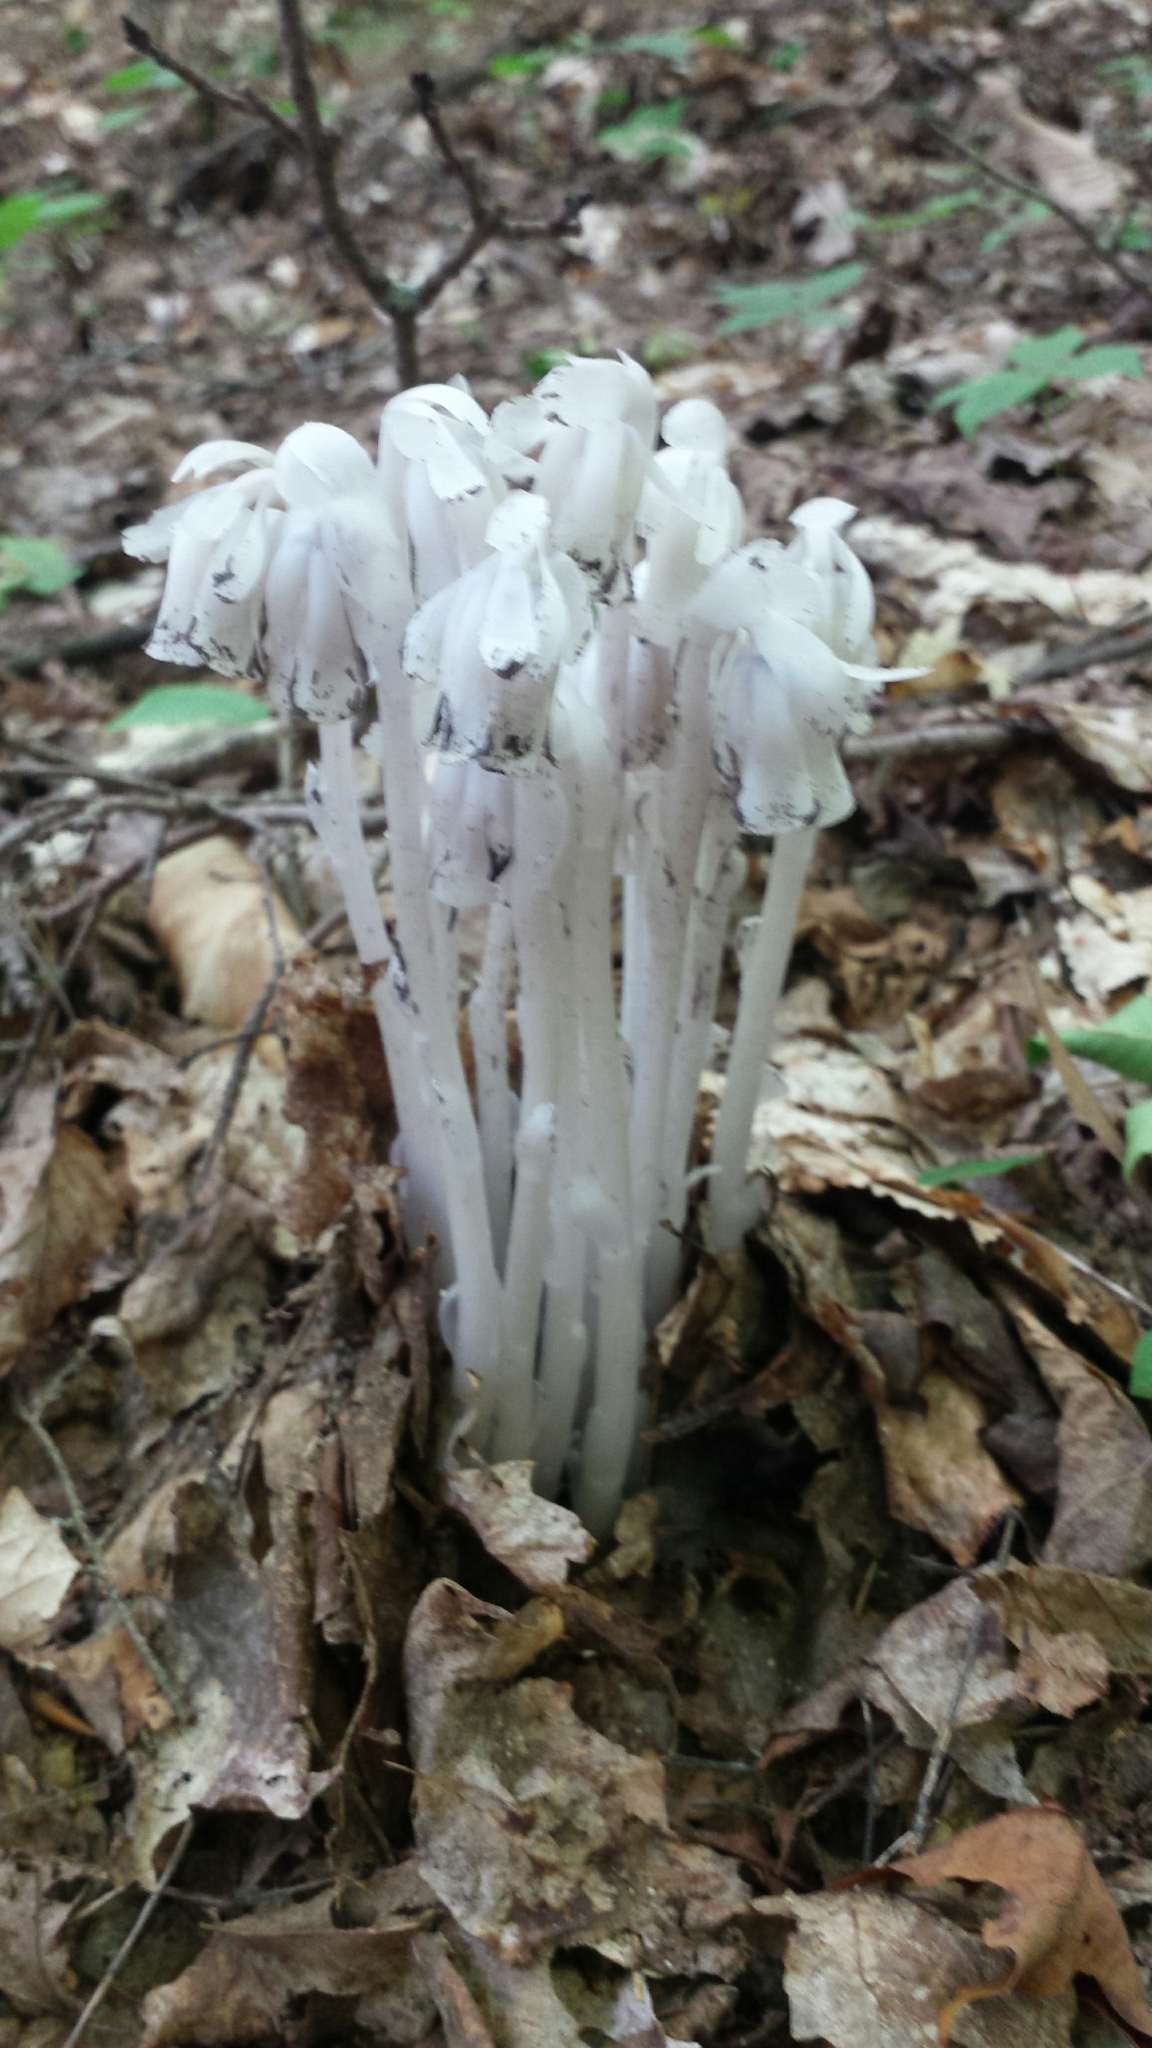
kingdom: Plantae
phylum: Tracheophyta
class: Magnoliopsida
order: Ericales
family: Ericaceae
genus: Monotropa
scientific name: Monotropa uniflora
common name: Convulsion root
